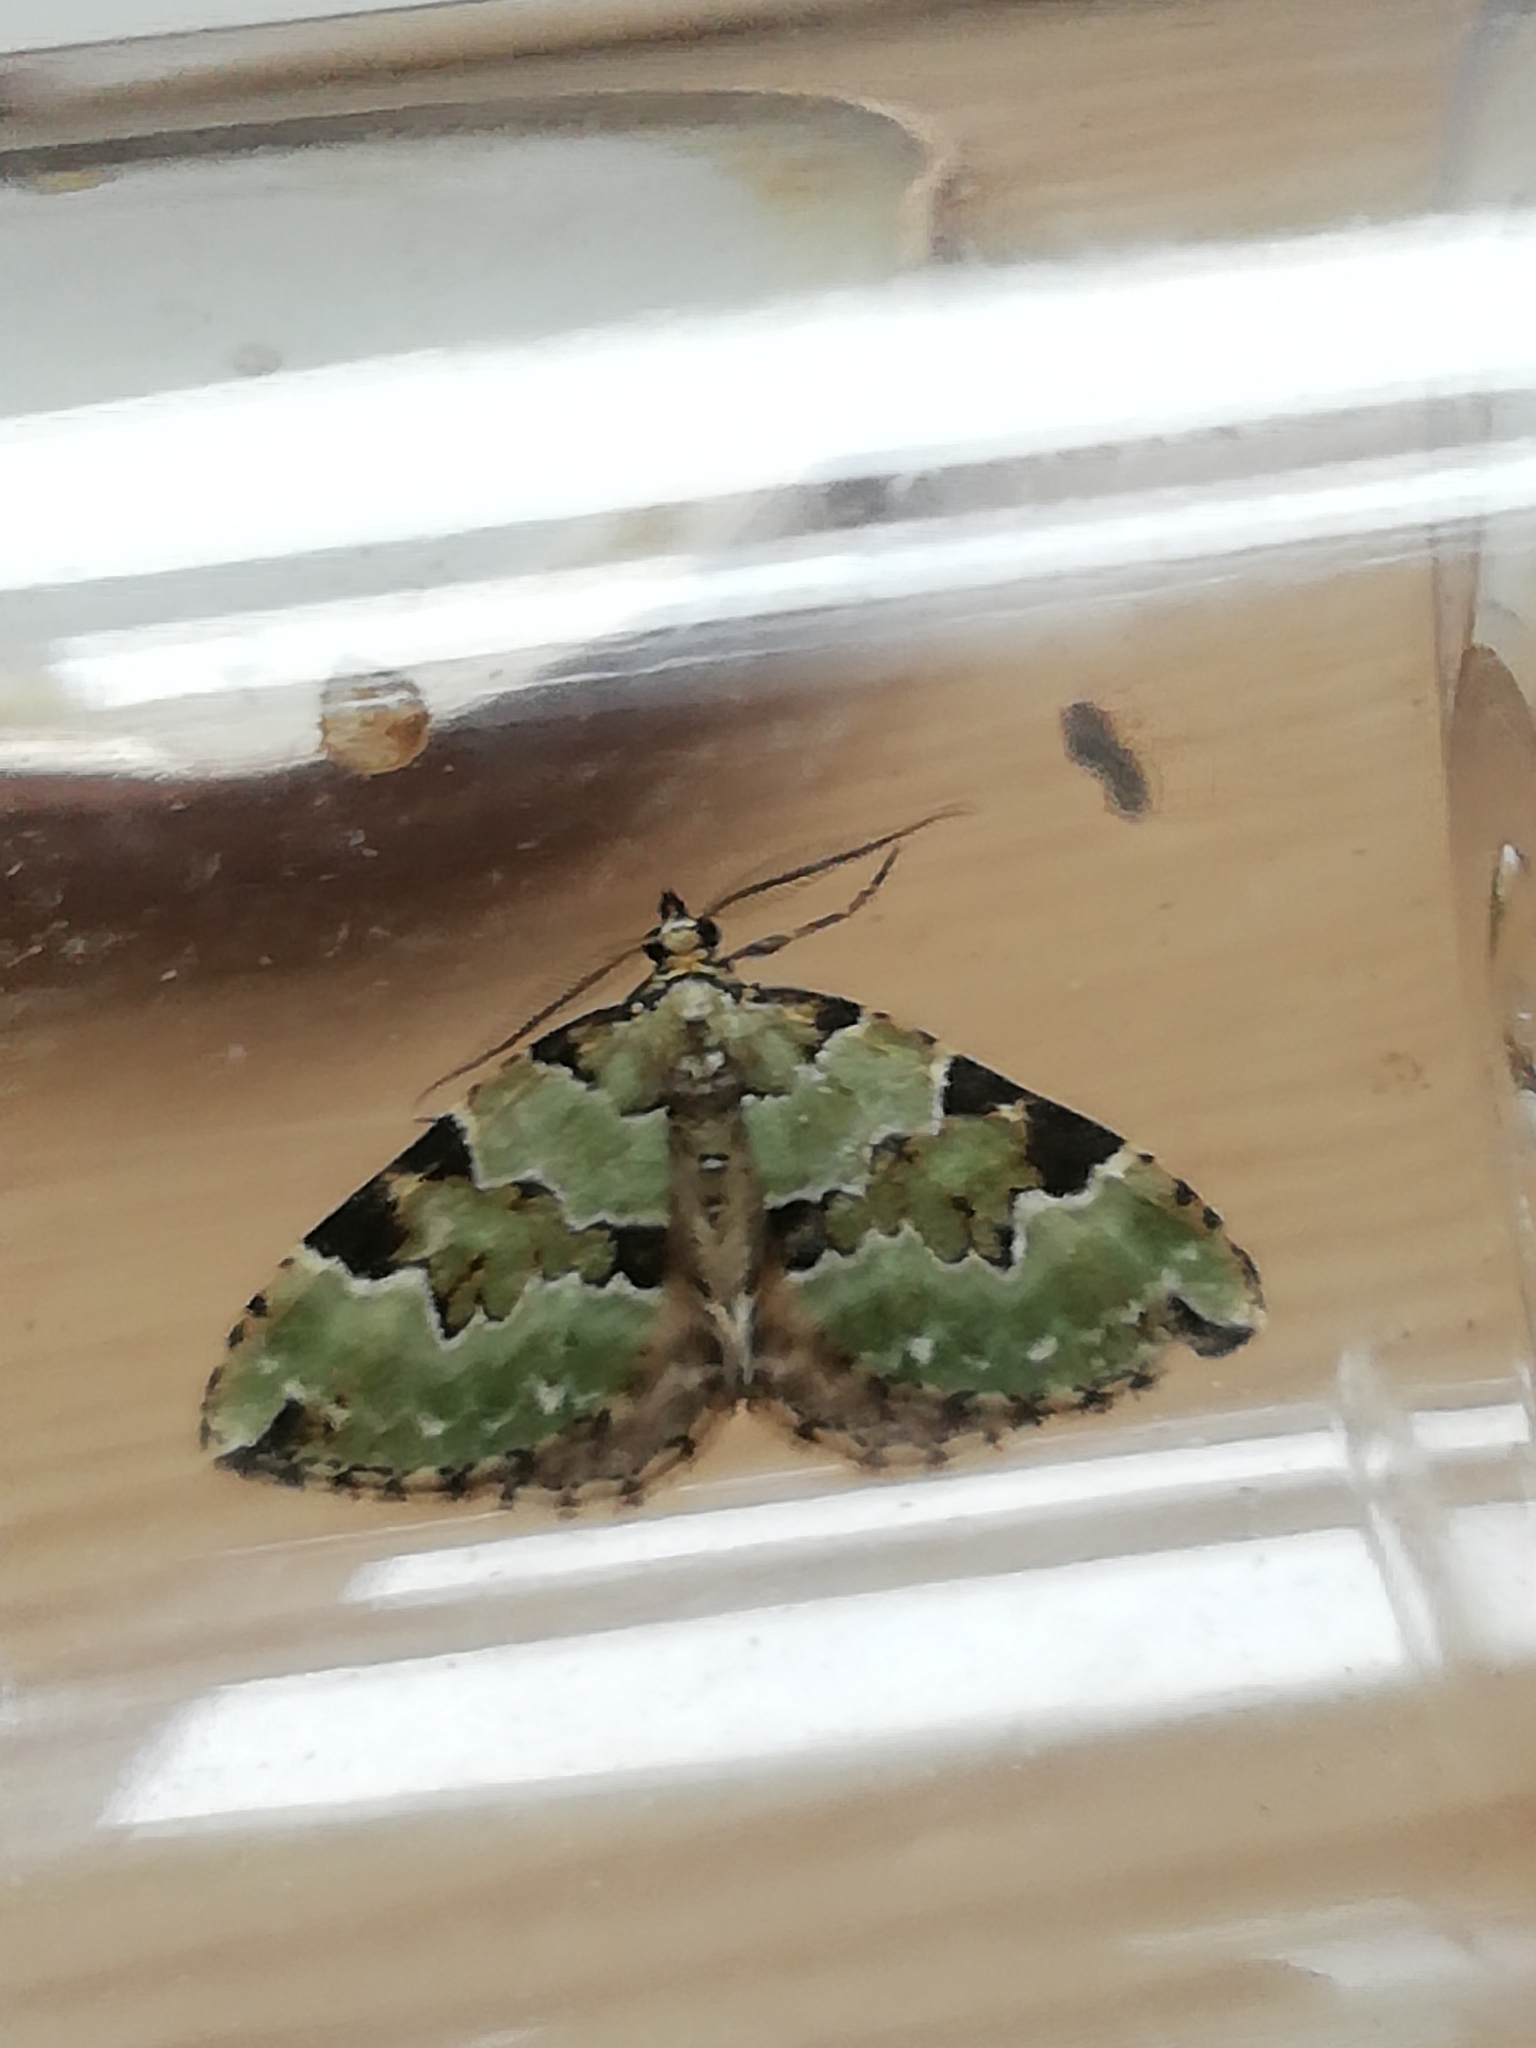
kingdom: Animalia
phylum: Arthropoda
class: Insecta
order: Lepidoptera
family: Geometridae
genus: Colostygia
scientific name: Colostygia pectinataria
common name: Green carpet
